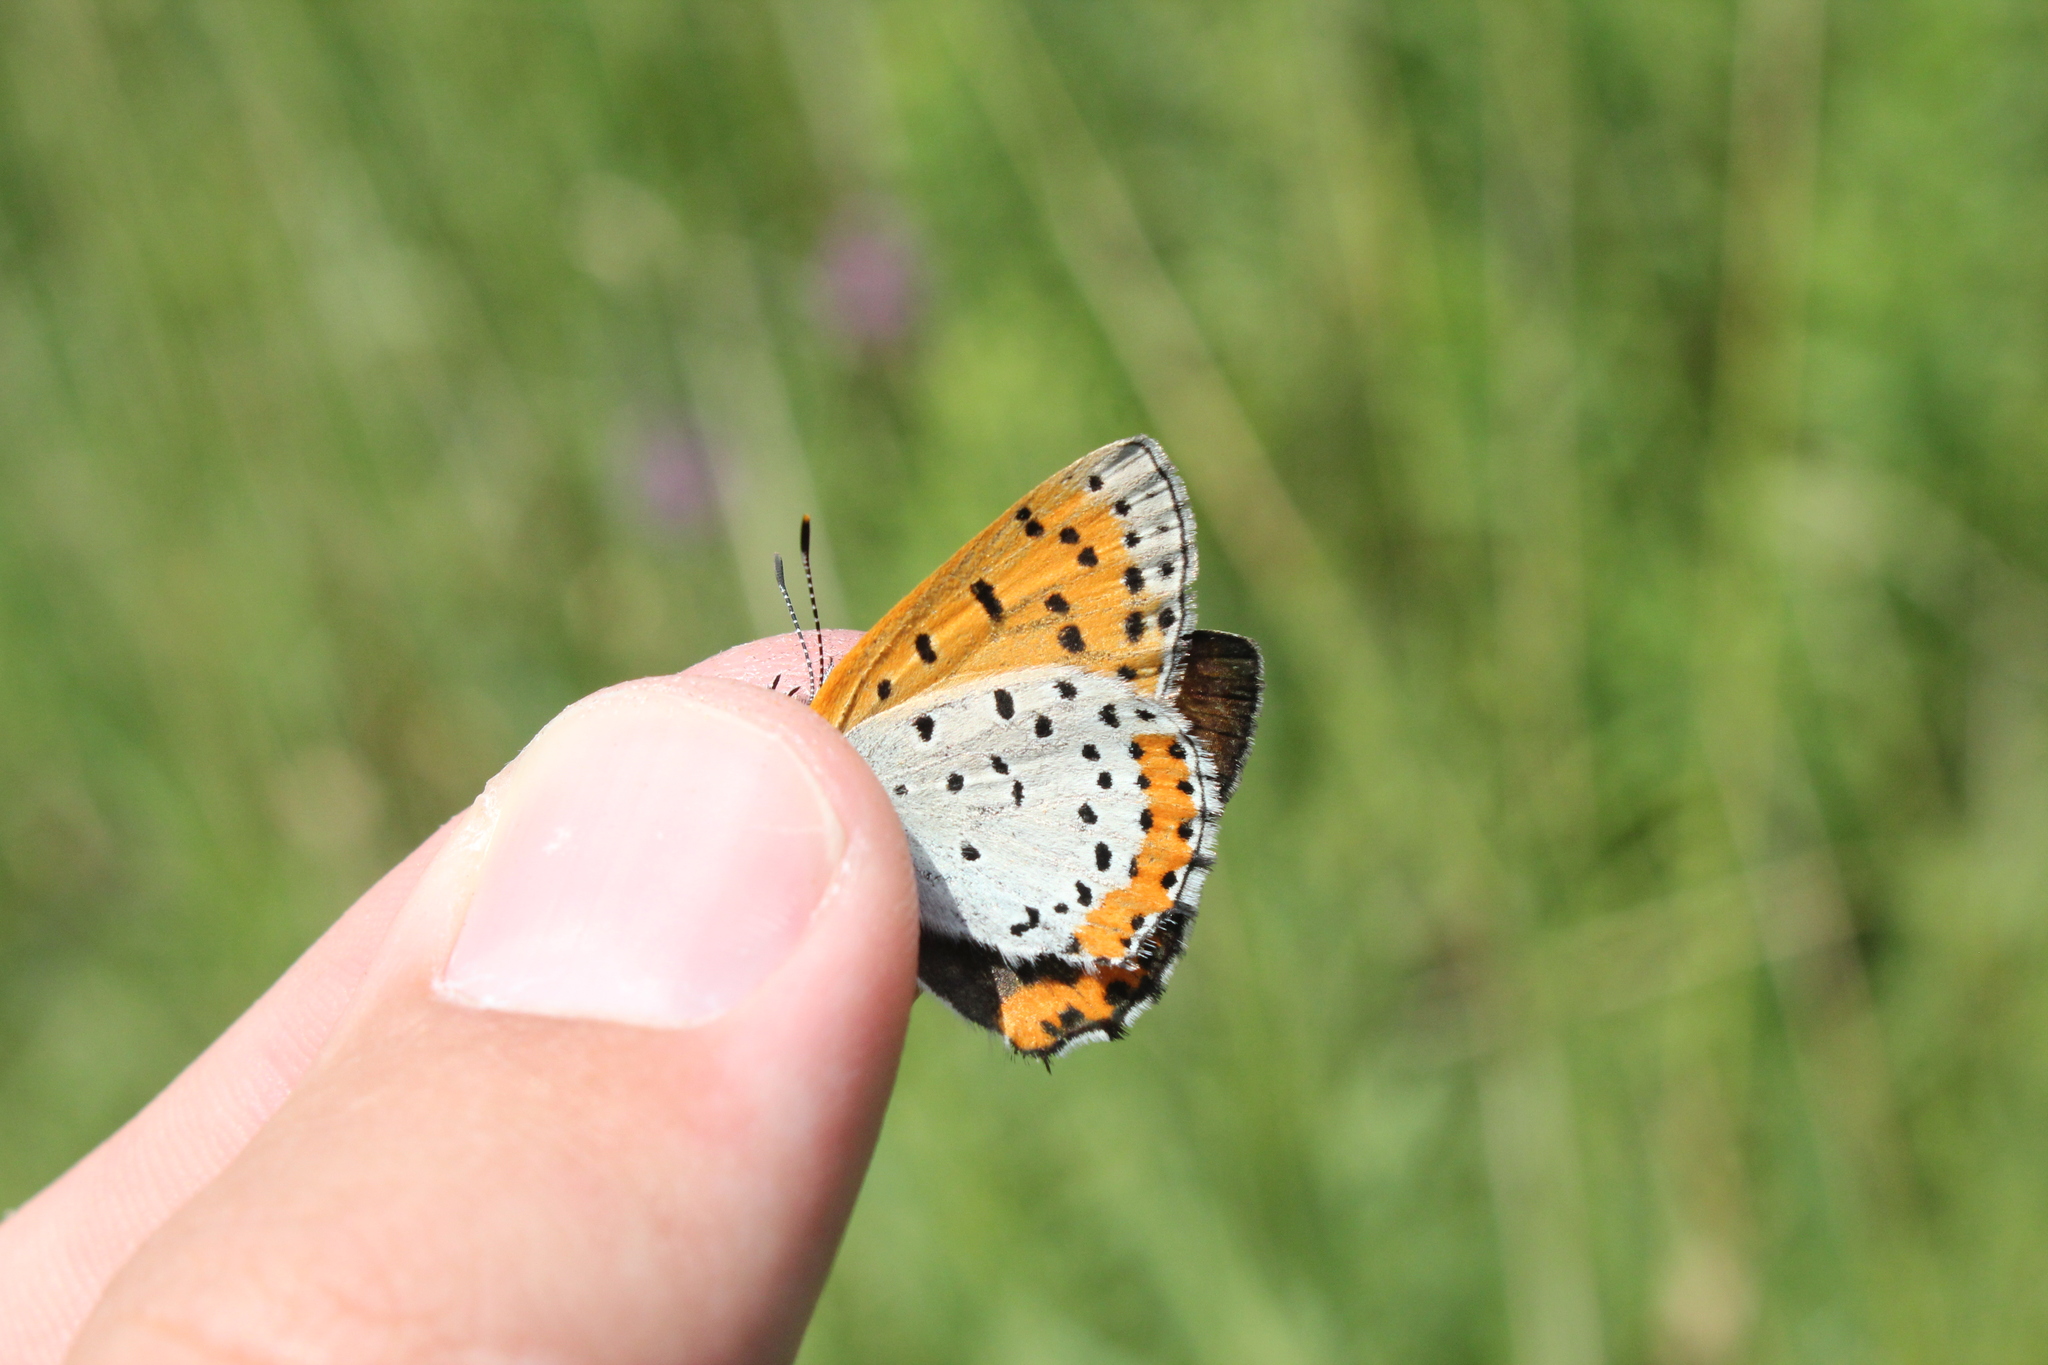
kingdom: Animalia
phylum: Arthropoda
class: Insecta
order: Lepidoptera
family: Lycaenidae
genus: Tharsalea
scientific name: Tharsalea hyllus
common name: Bronze copper
